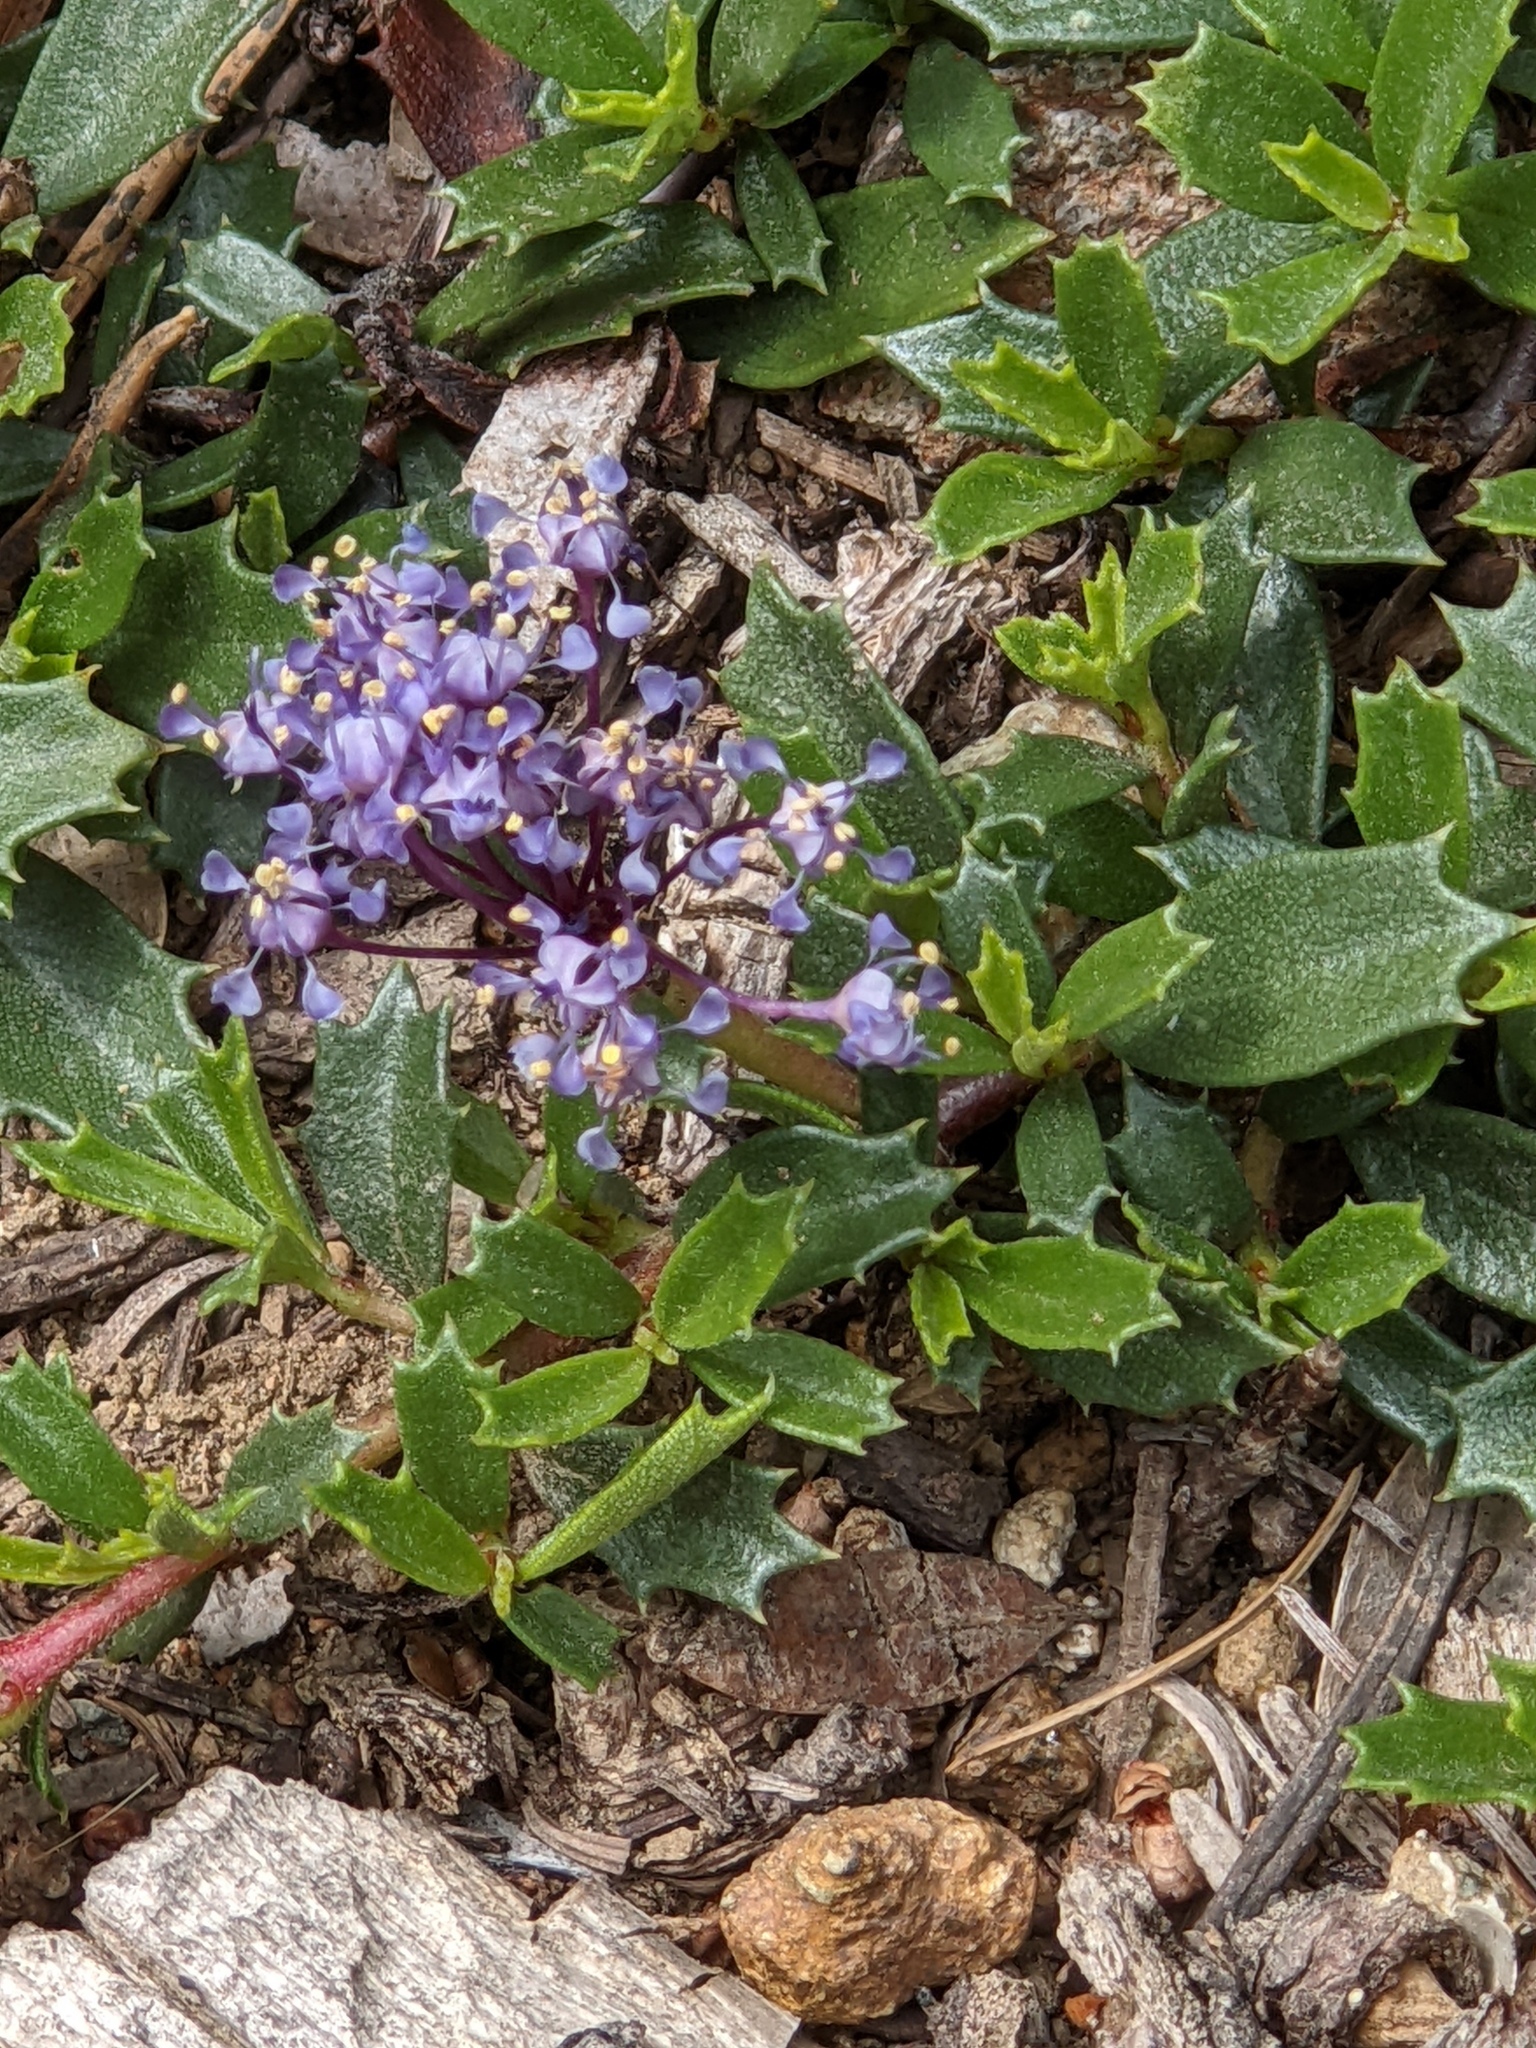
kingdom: Plantae
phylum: Tracheophyta
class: Magnoliopsida
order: Rosales
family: Rhamnaceae
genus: Ceanothus
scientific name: Ceanothus prostratus
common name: Mahala-mat
